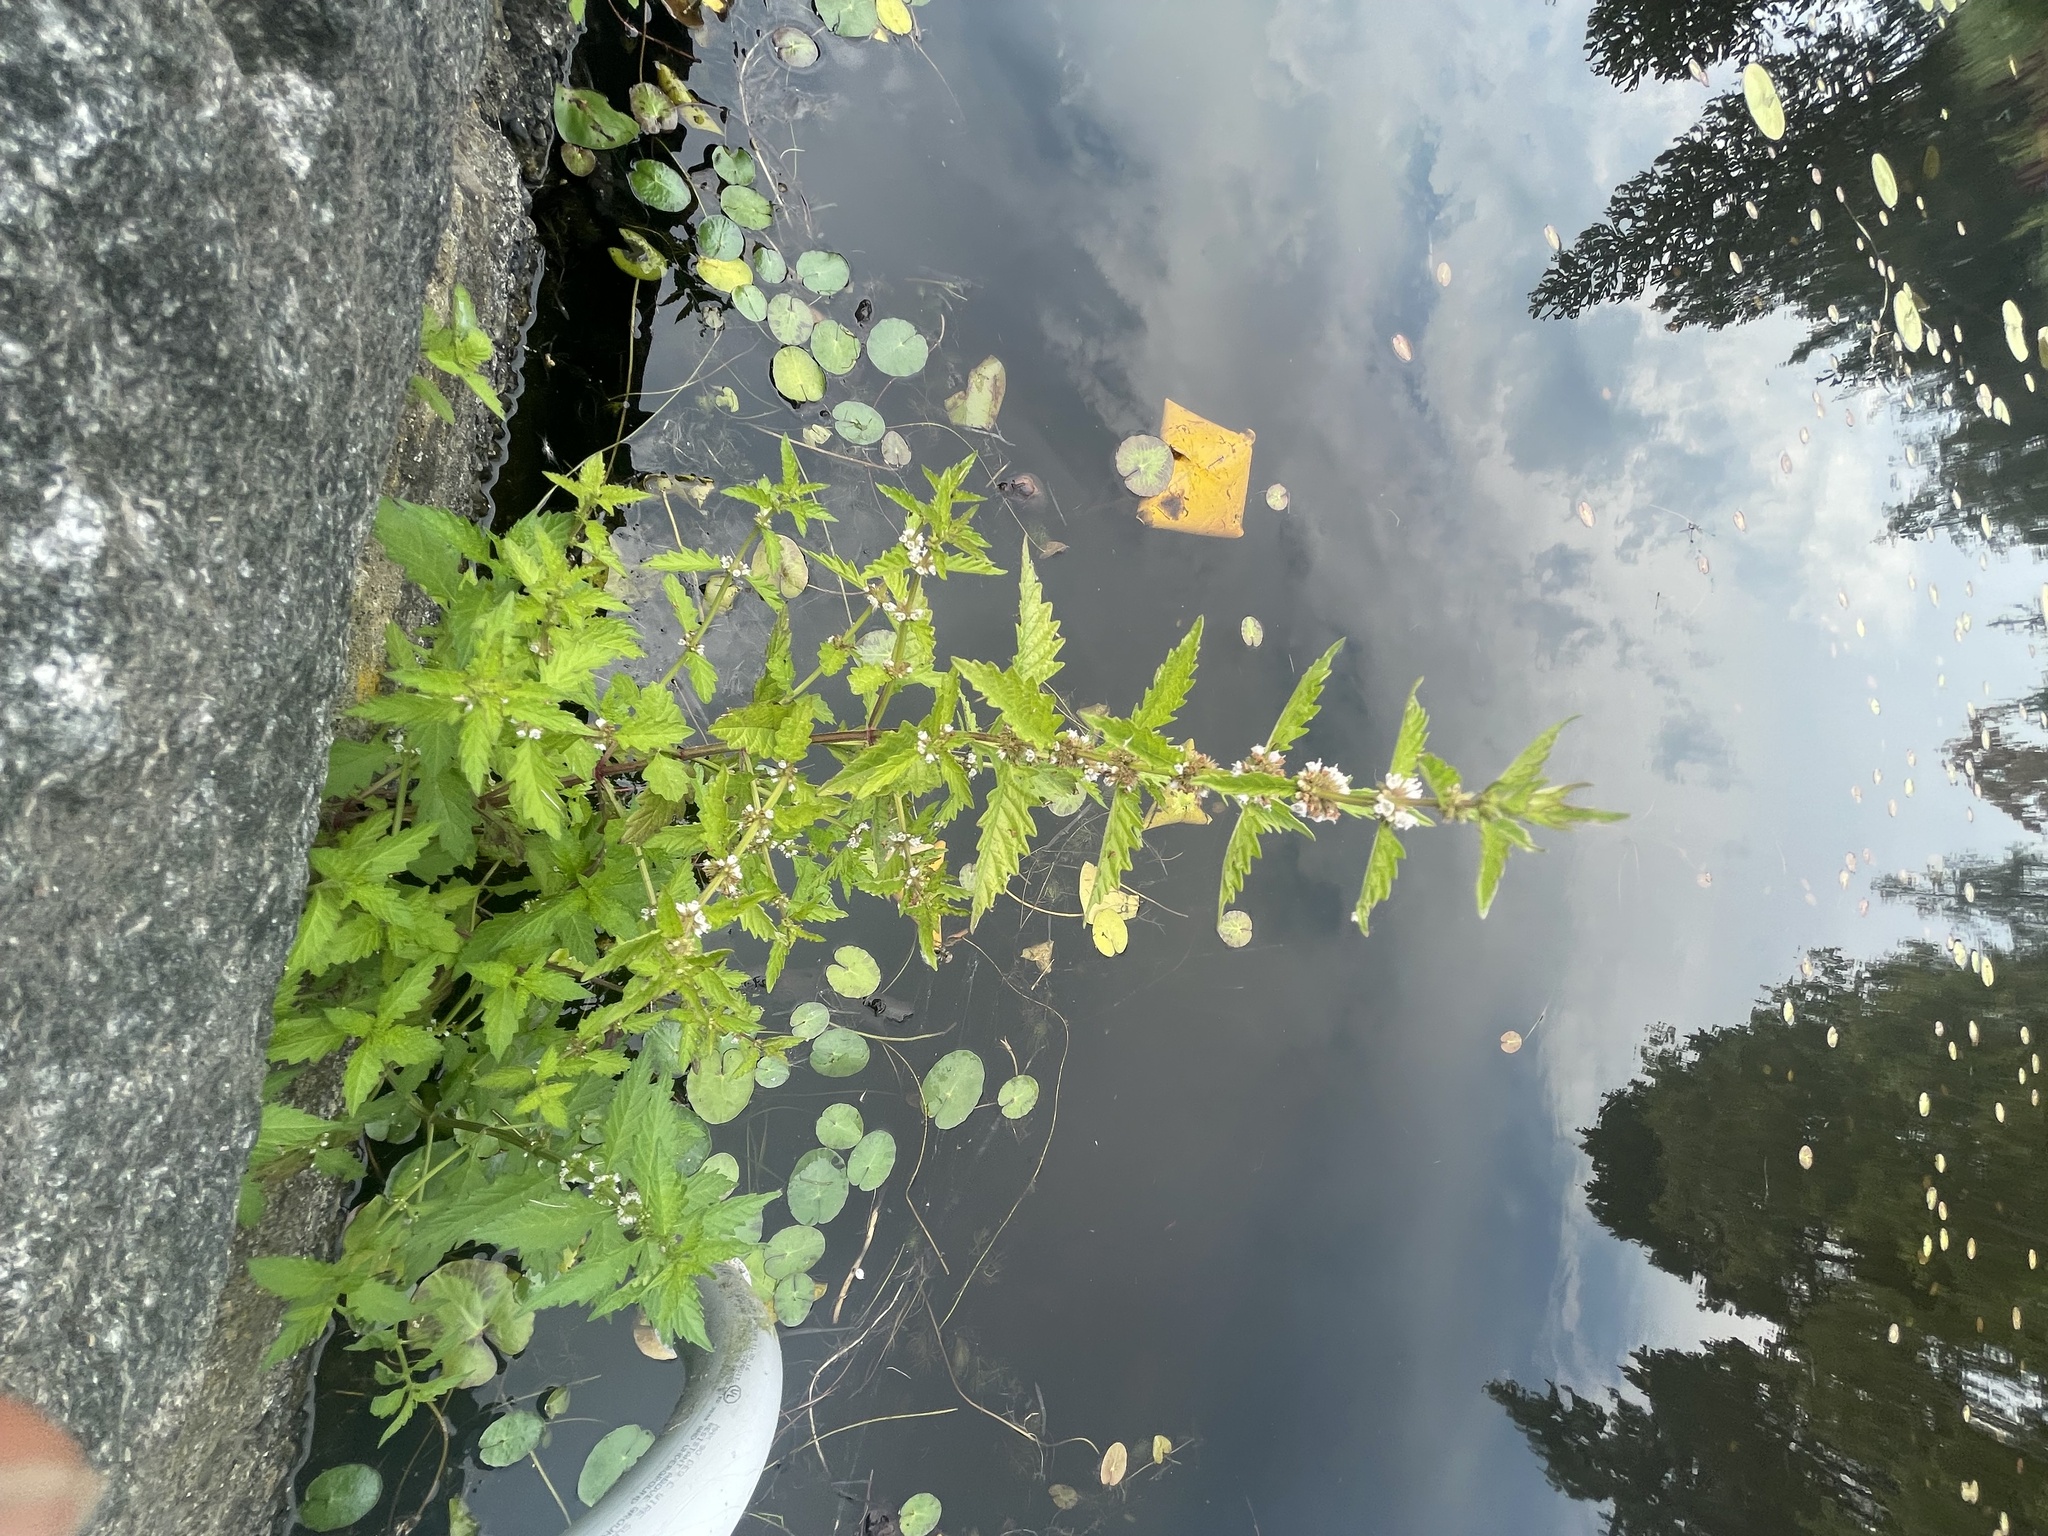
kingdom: Plantae
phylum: Tracheophyta
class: Magnoliopsida
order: Lamiales
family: Lamiaceae
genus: Lycopus
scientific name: Lycopus europaeus
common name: European bugleweed
